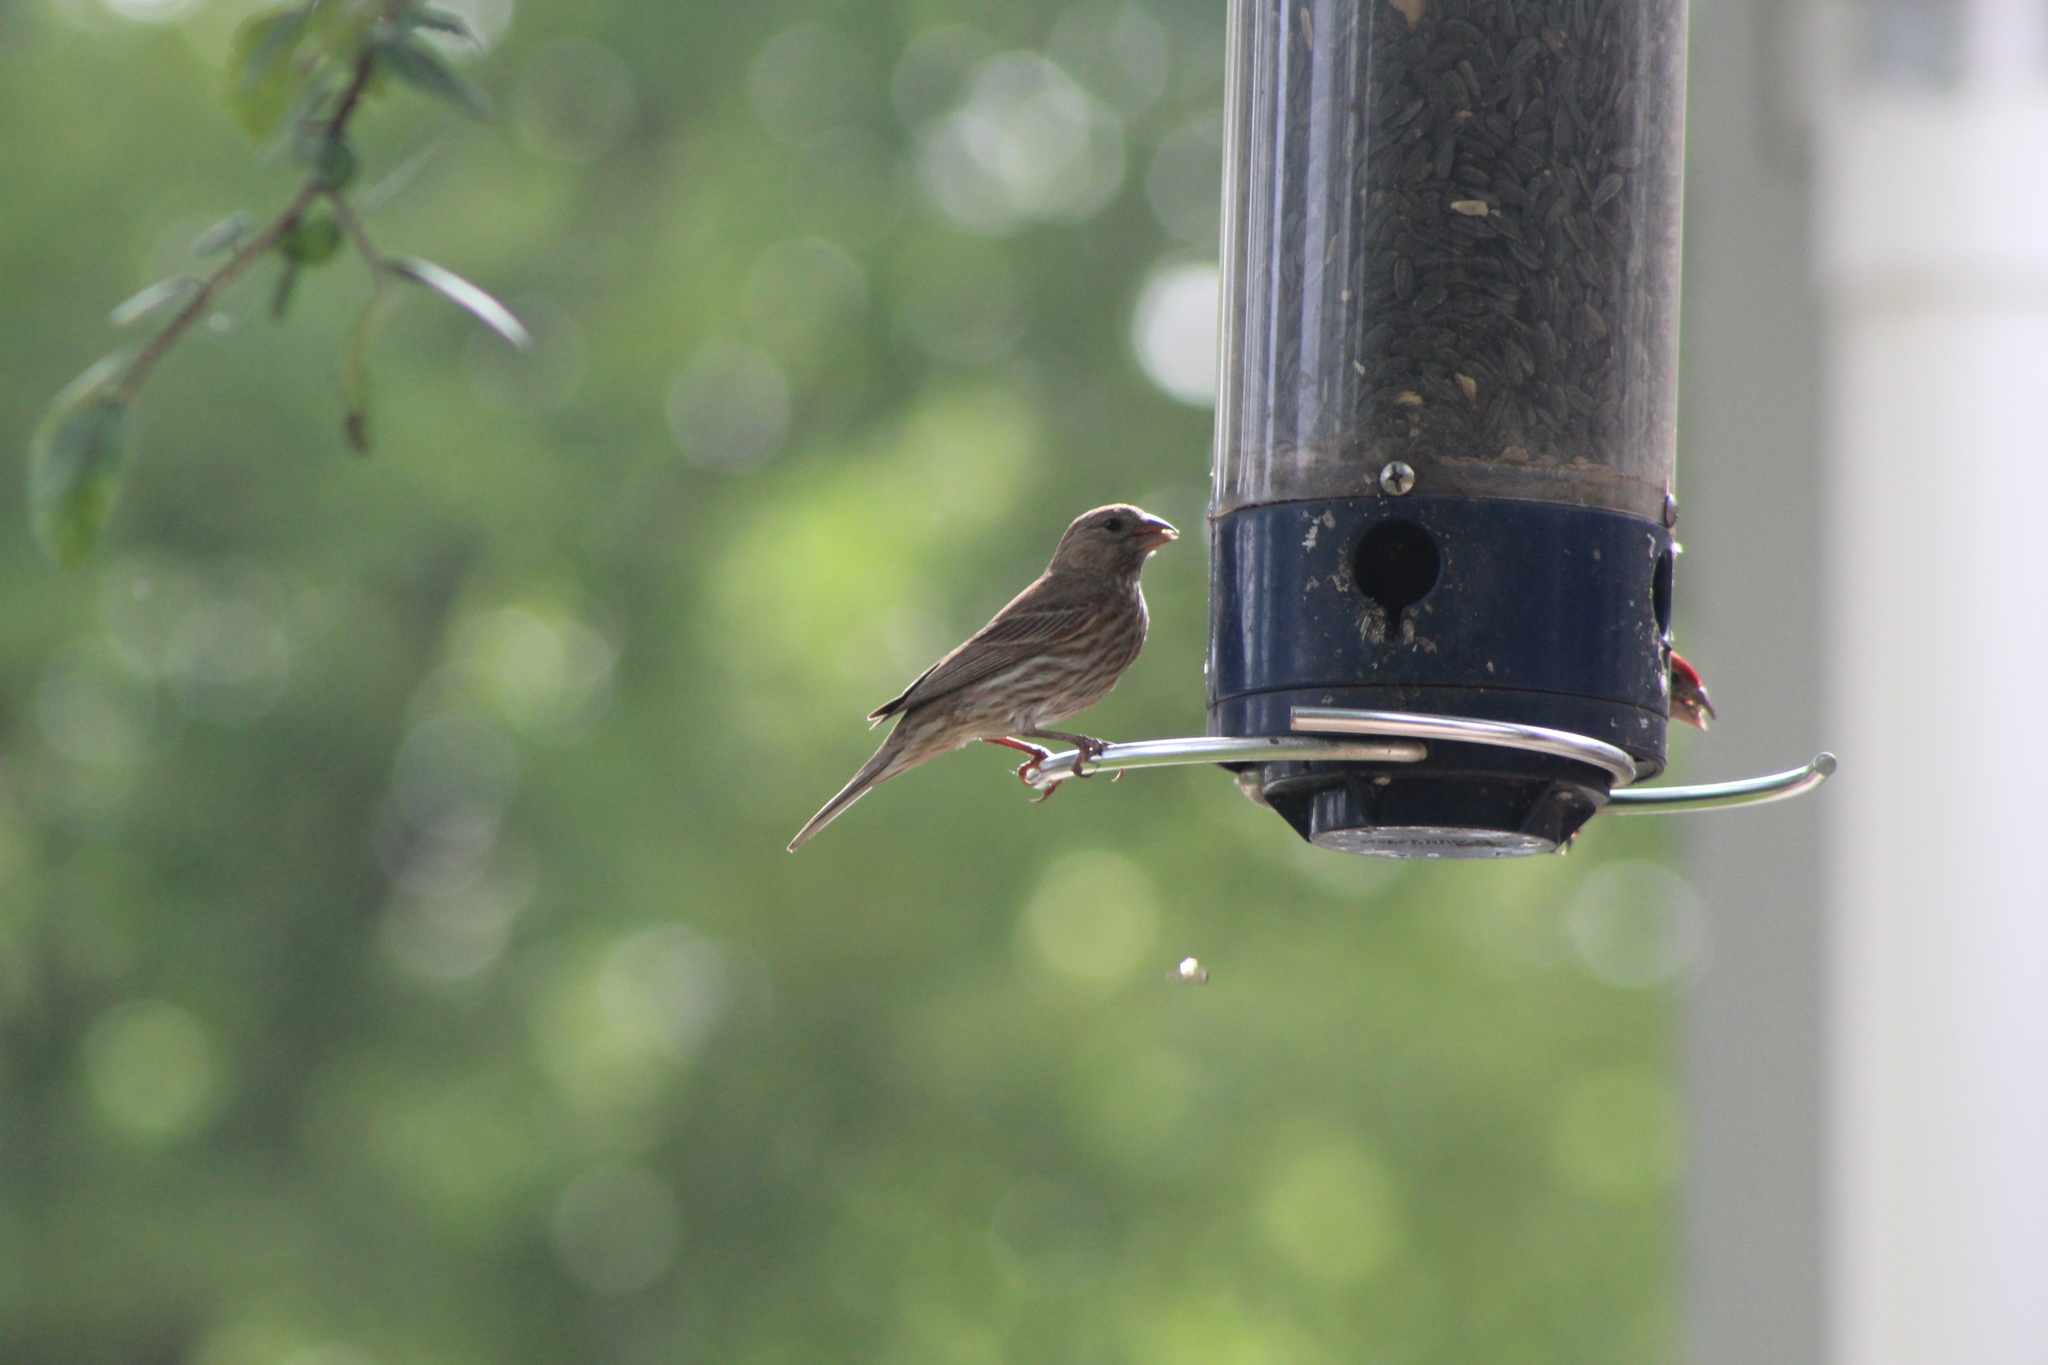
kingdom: Animalia
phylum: Chordata
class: Aves
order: Passeriformes
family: Fringillidae
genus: Haemorhous
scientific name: Haemorhous mexicanus
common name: House finch
